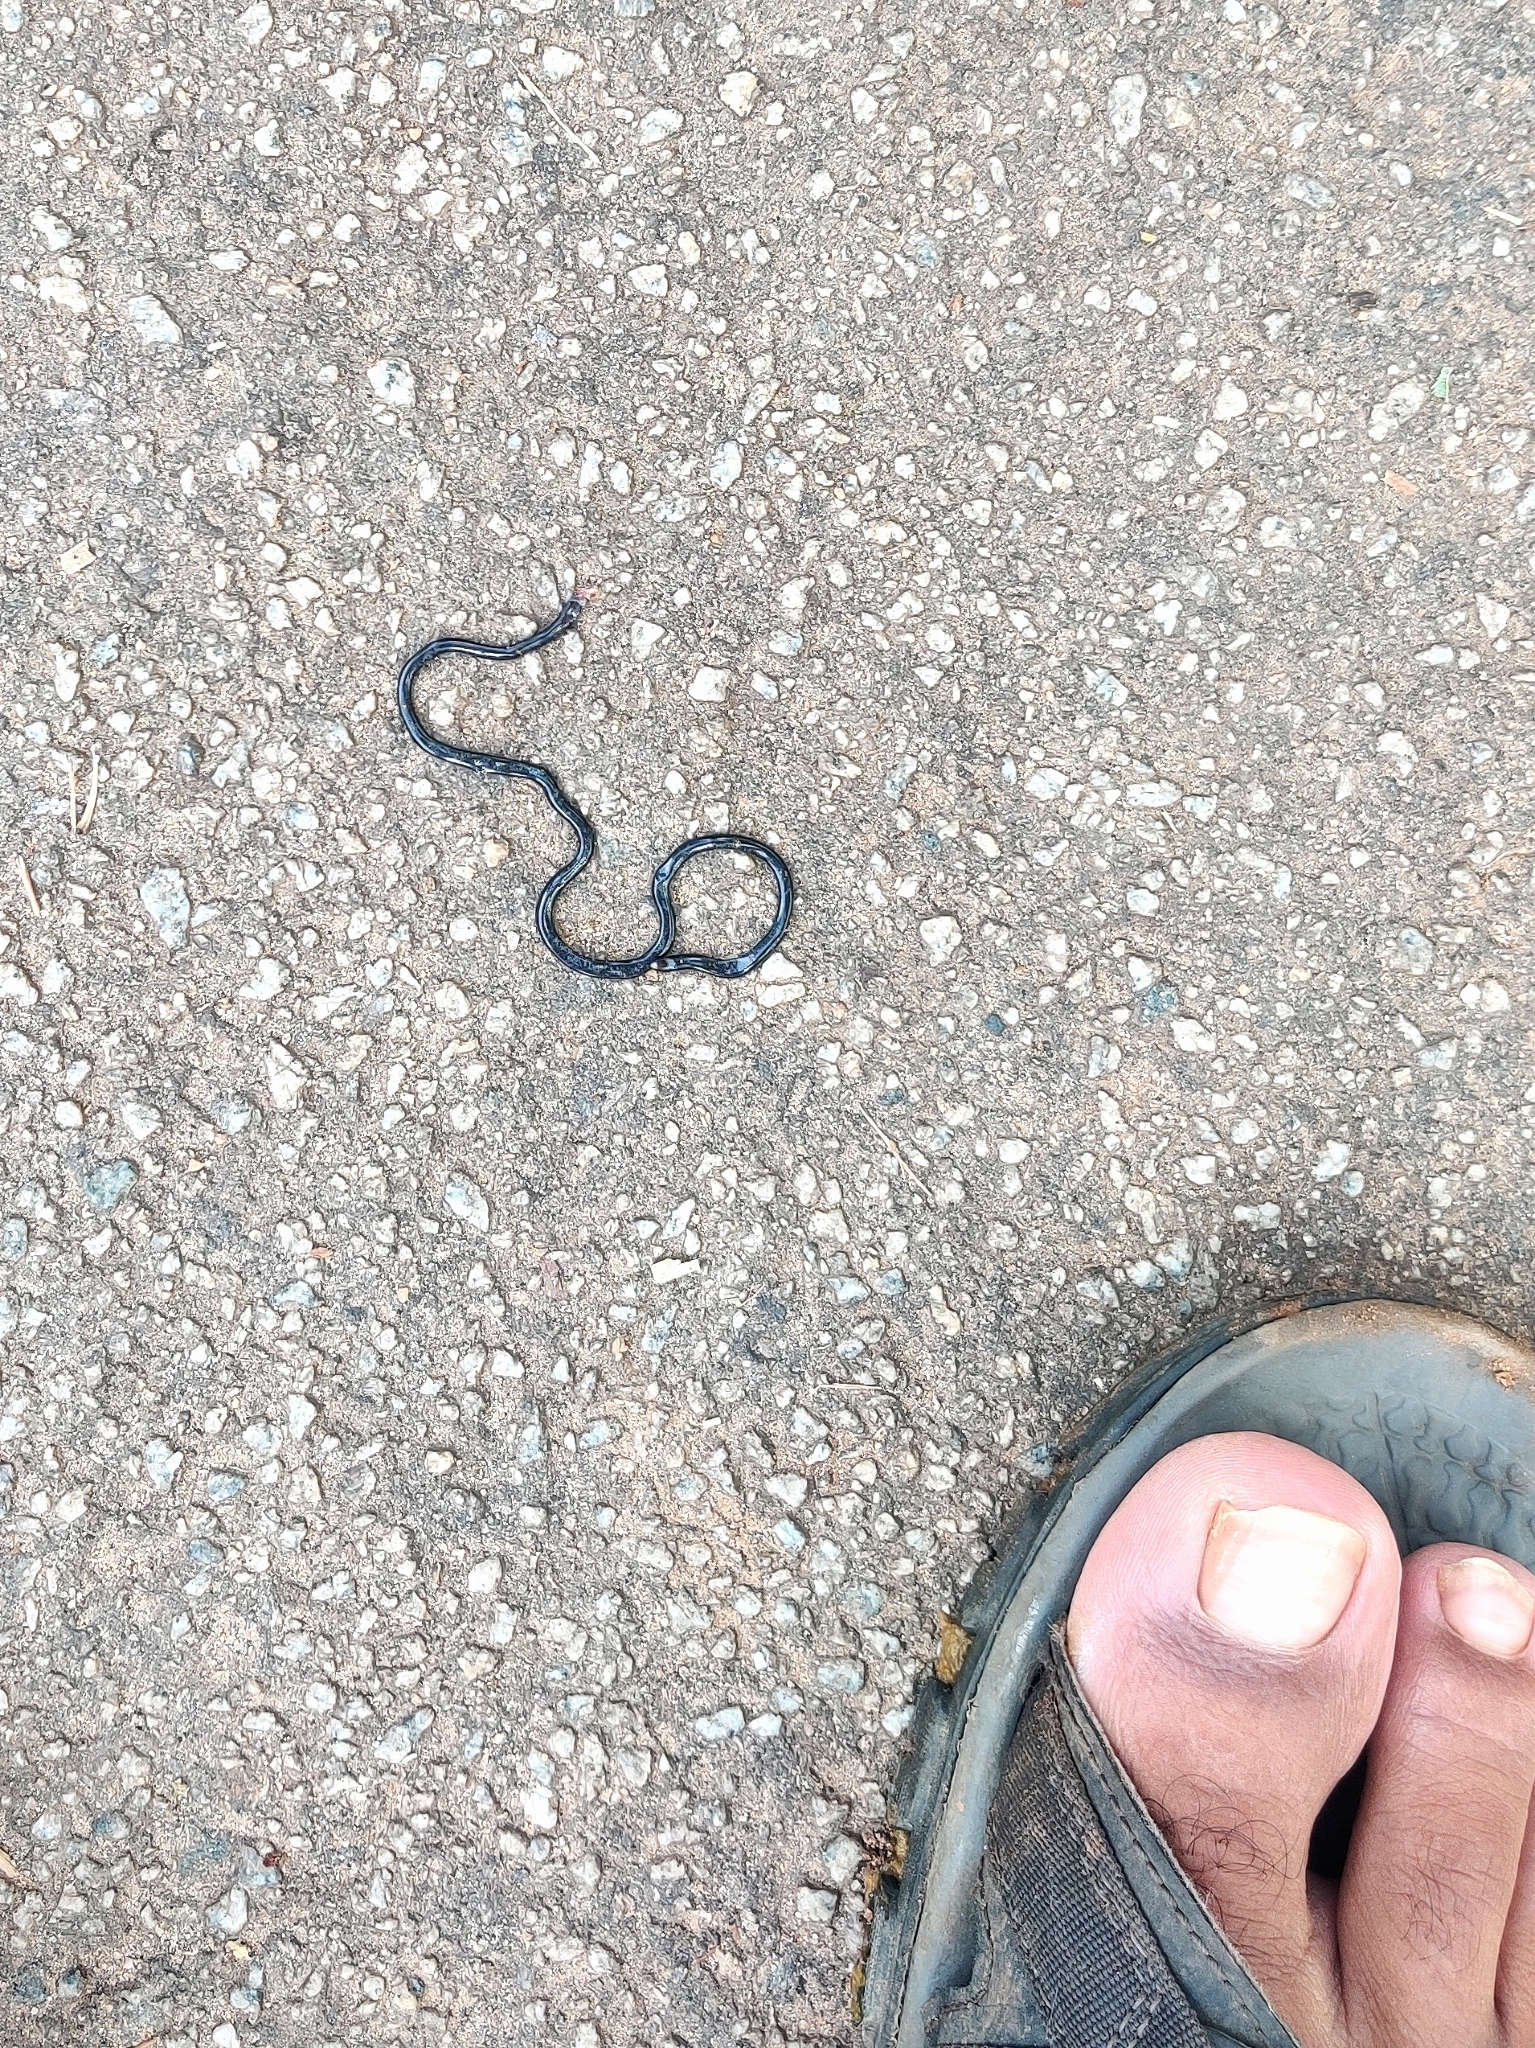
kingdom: Animalia
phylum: Chordata
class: Squamata
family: Typhlopidae
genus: Indotyphlops
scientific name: Indotyphlops braminus
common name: Brahminy blindsnake
